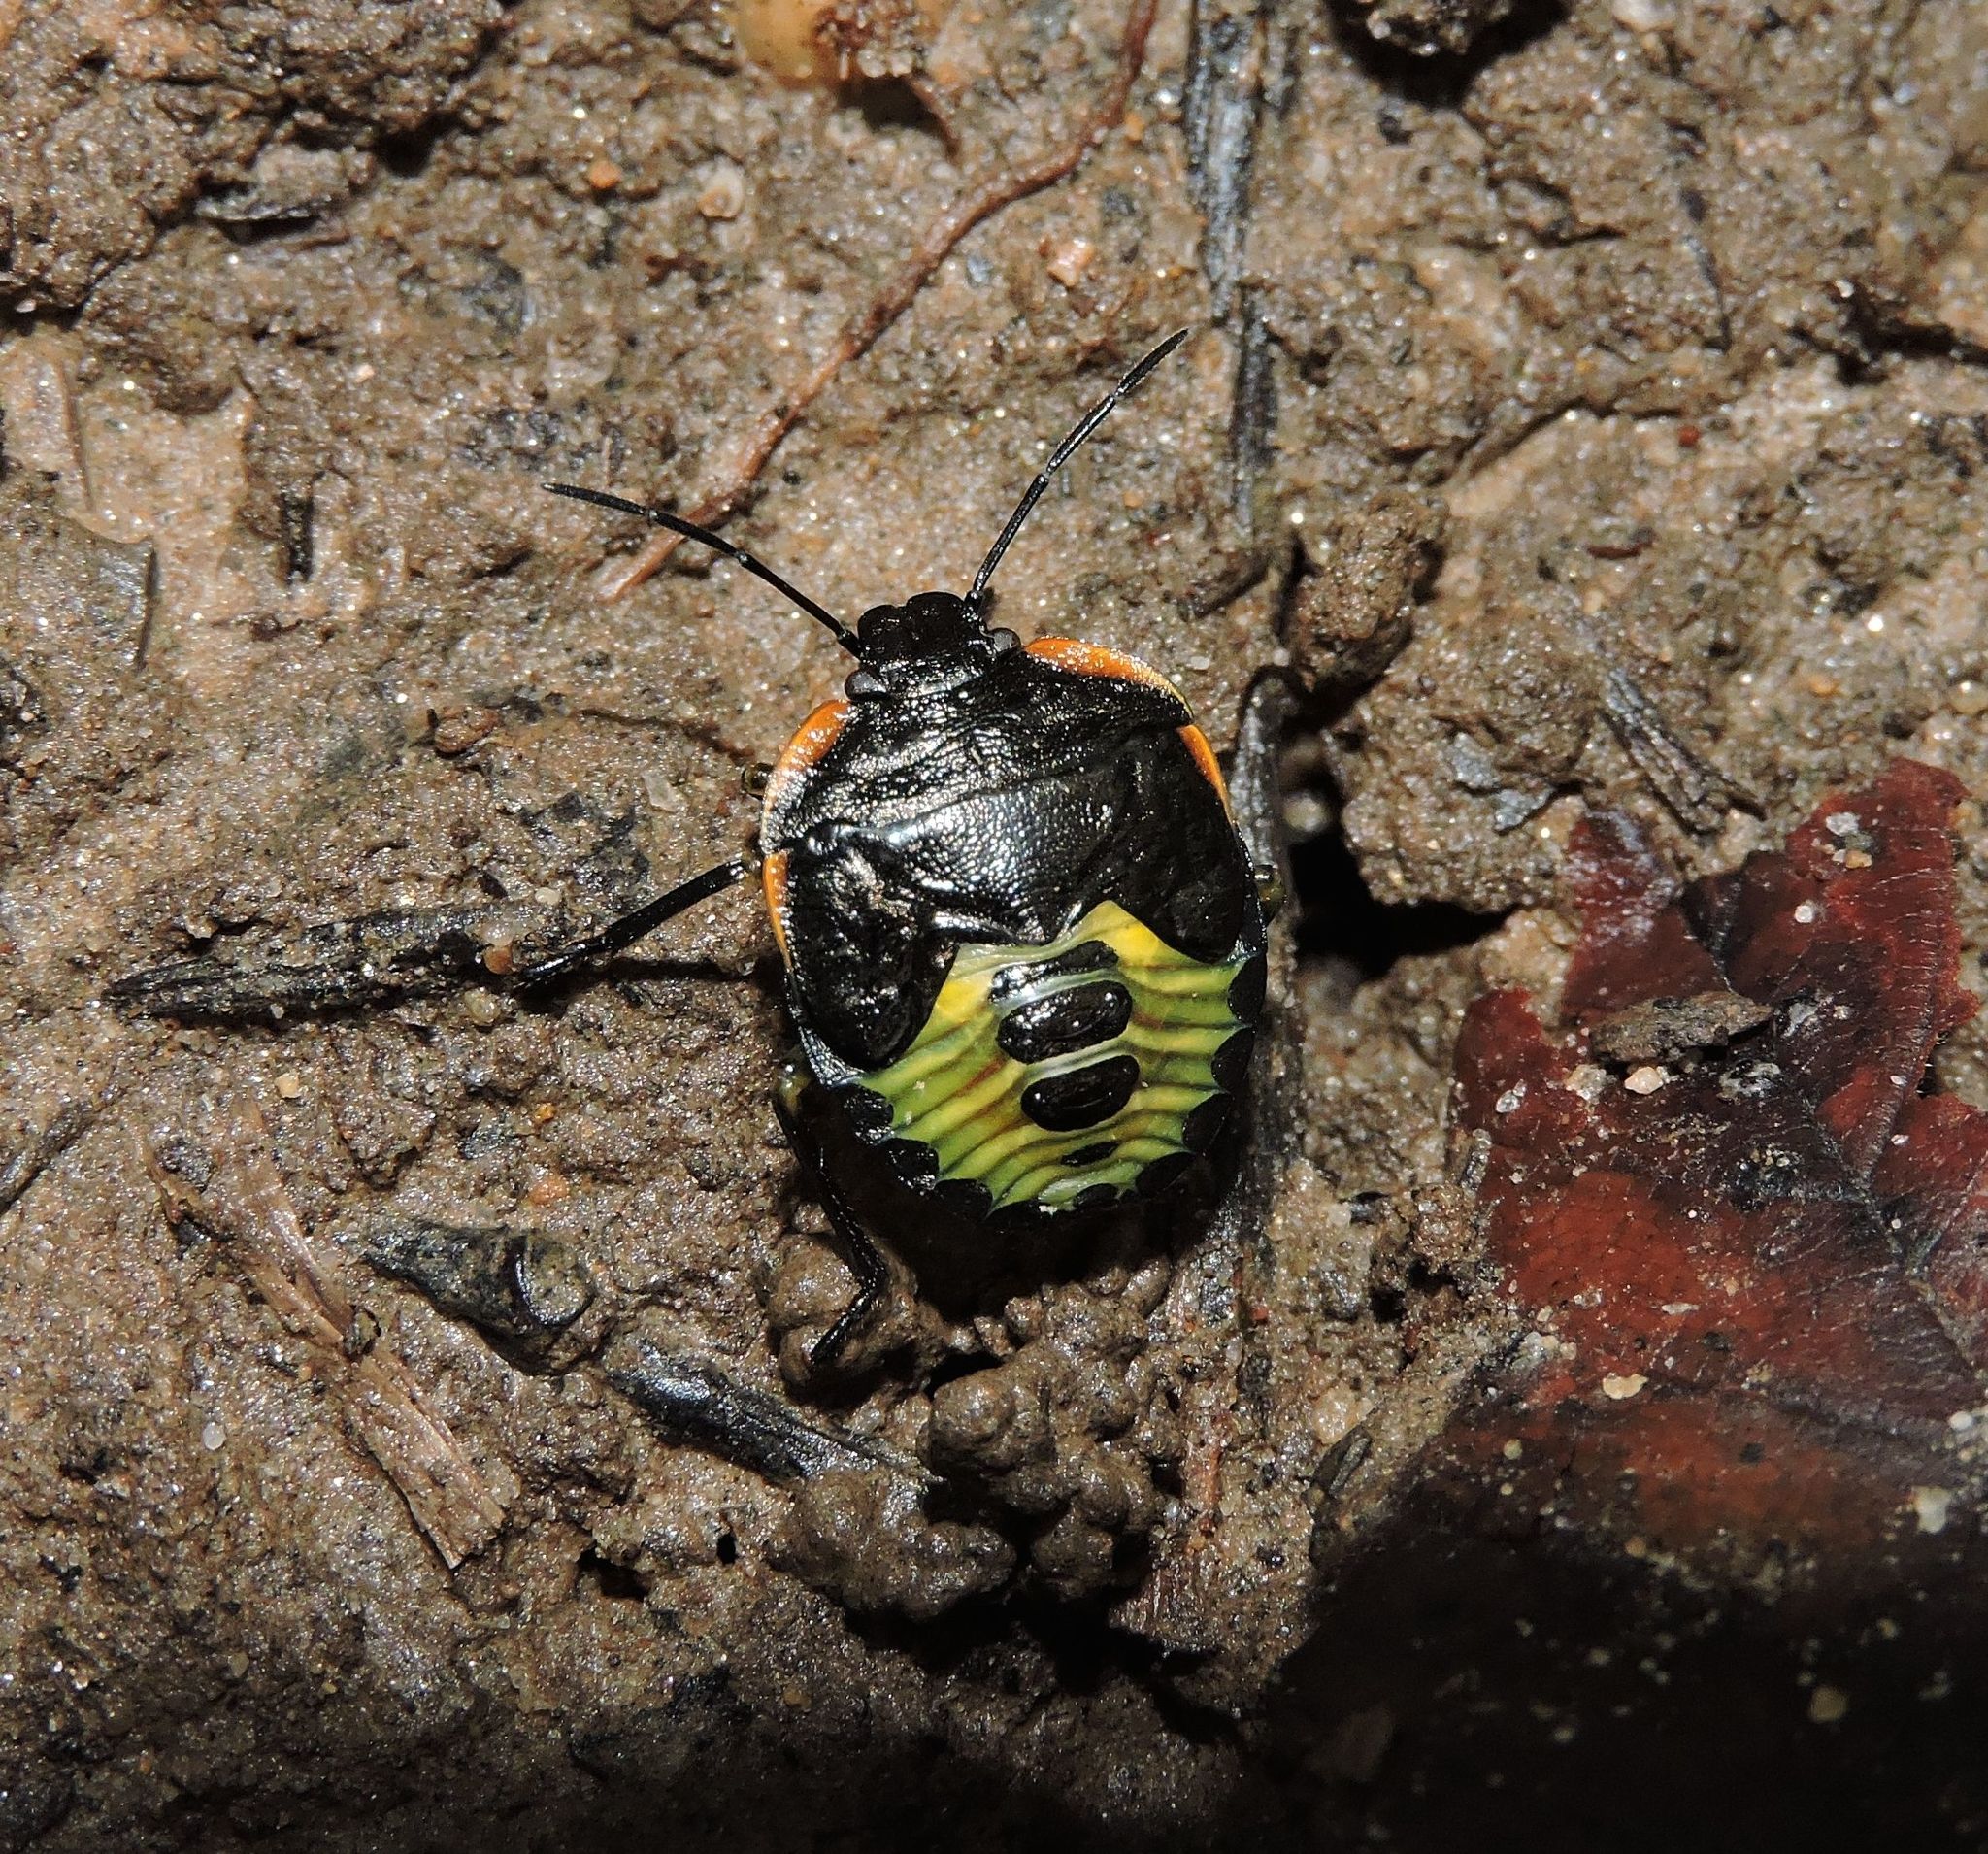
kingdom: Animalia
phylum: Arthropoda
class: Insecta
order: Hemiptera
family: Pentatomidae
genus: Chinavia
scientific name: Chinavia hilaris
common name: Green stink bug
